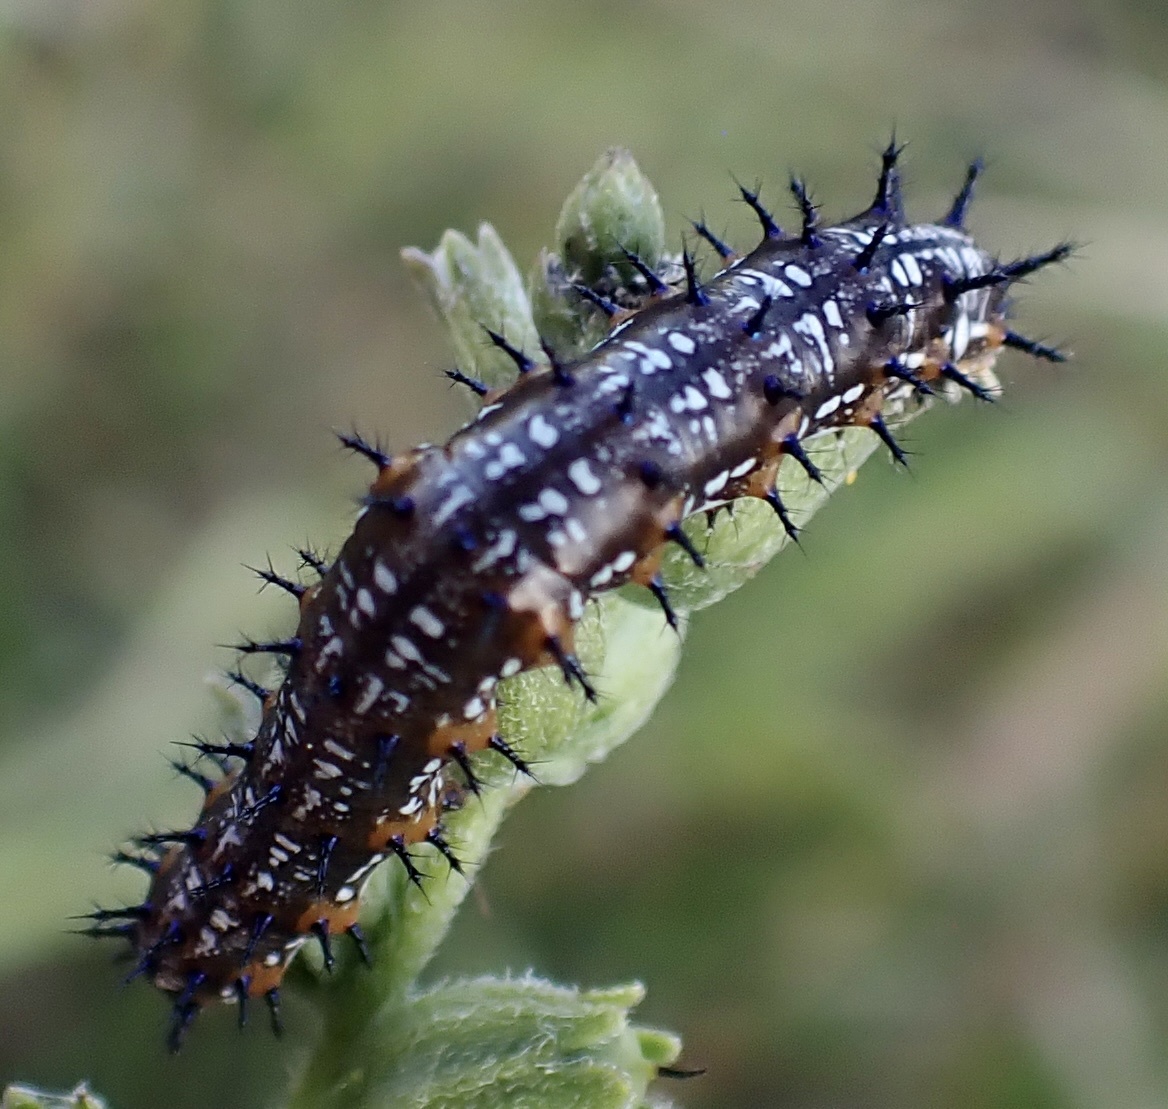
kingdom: Animalia
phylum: Arthropoda
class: Insecta
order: Lepidoptera
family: Nymphalidae
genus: Junonia
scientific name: Junonia coenia
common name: Common buckeye
